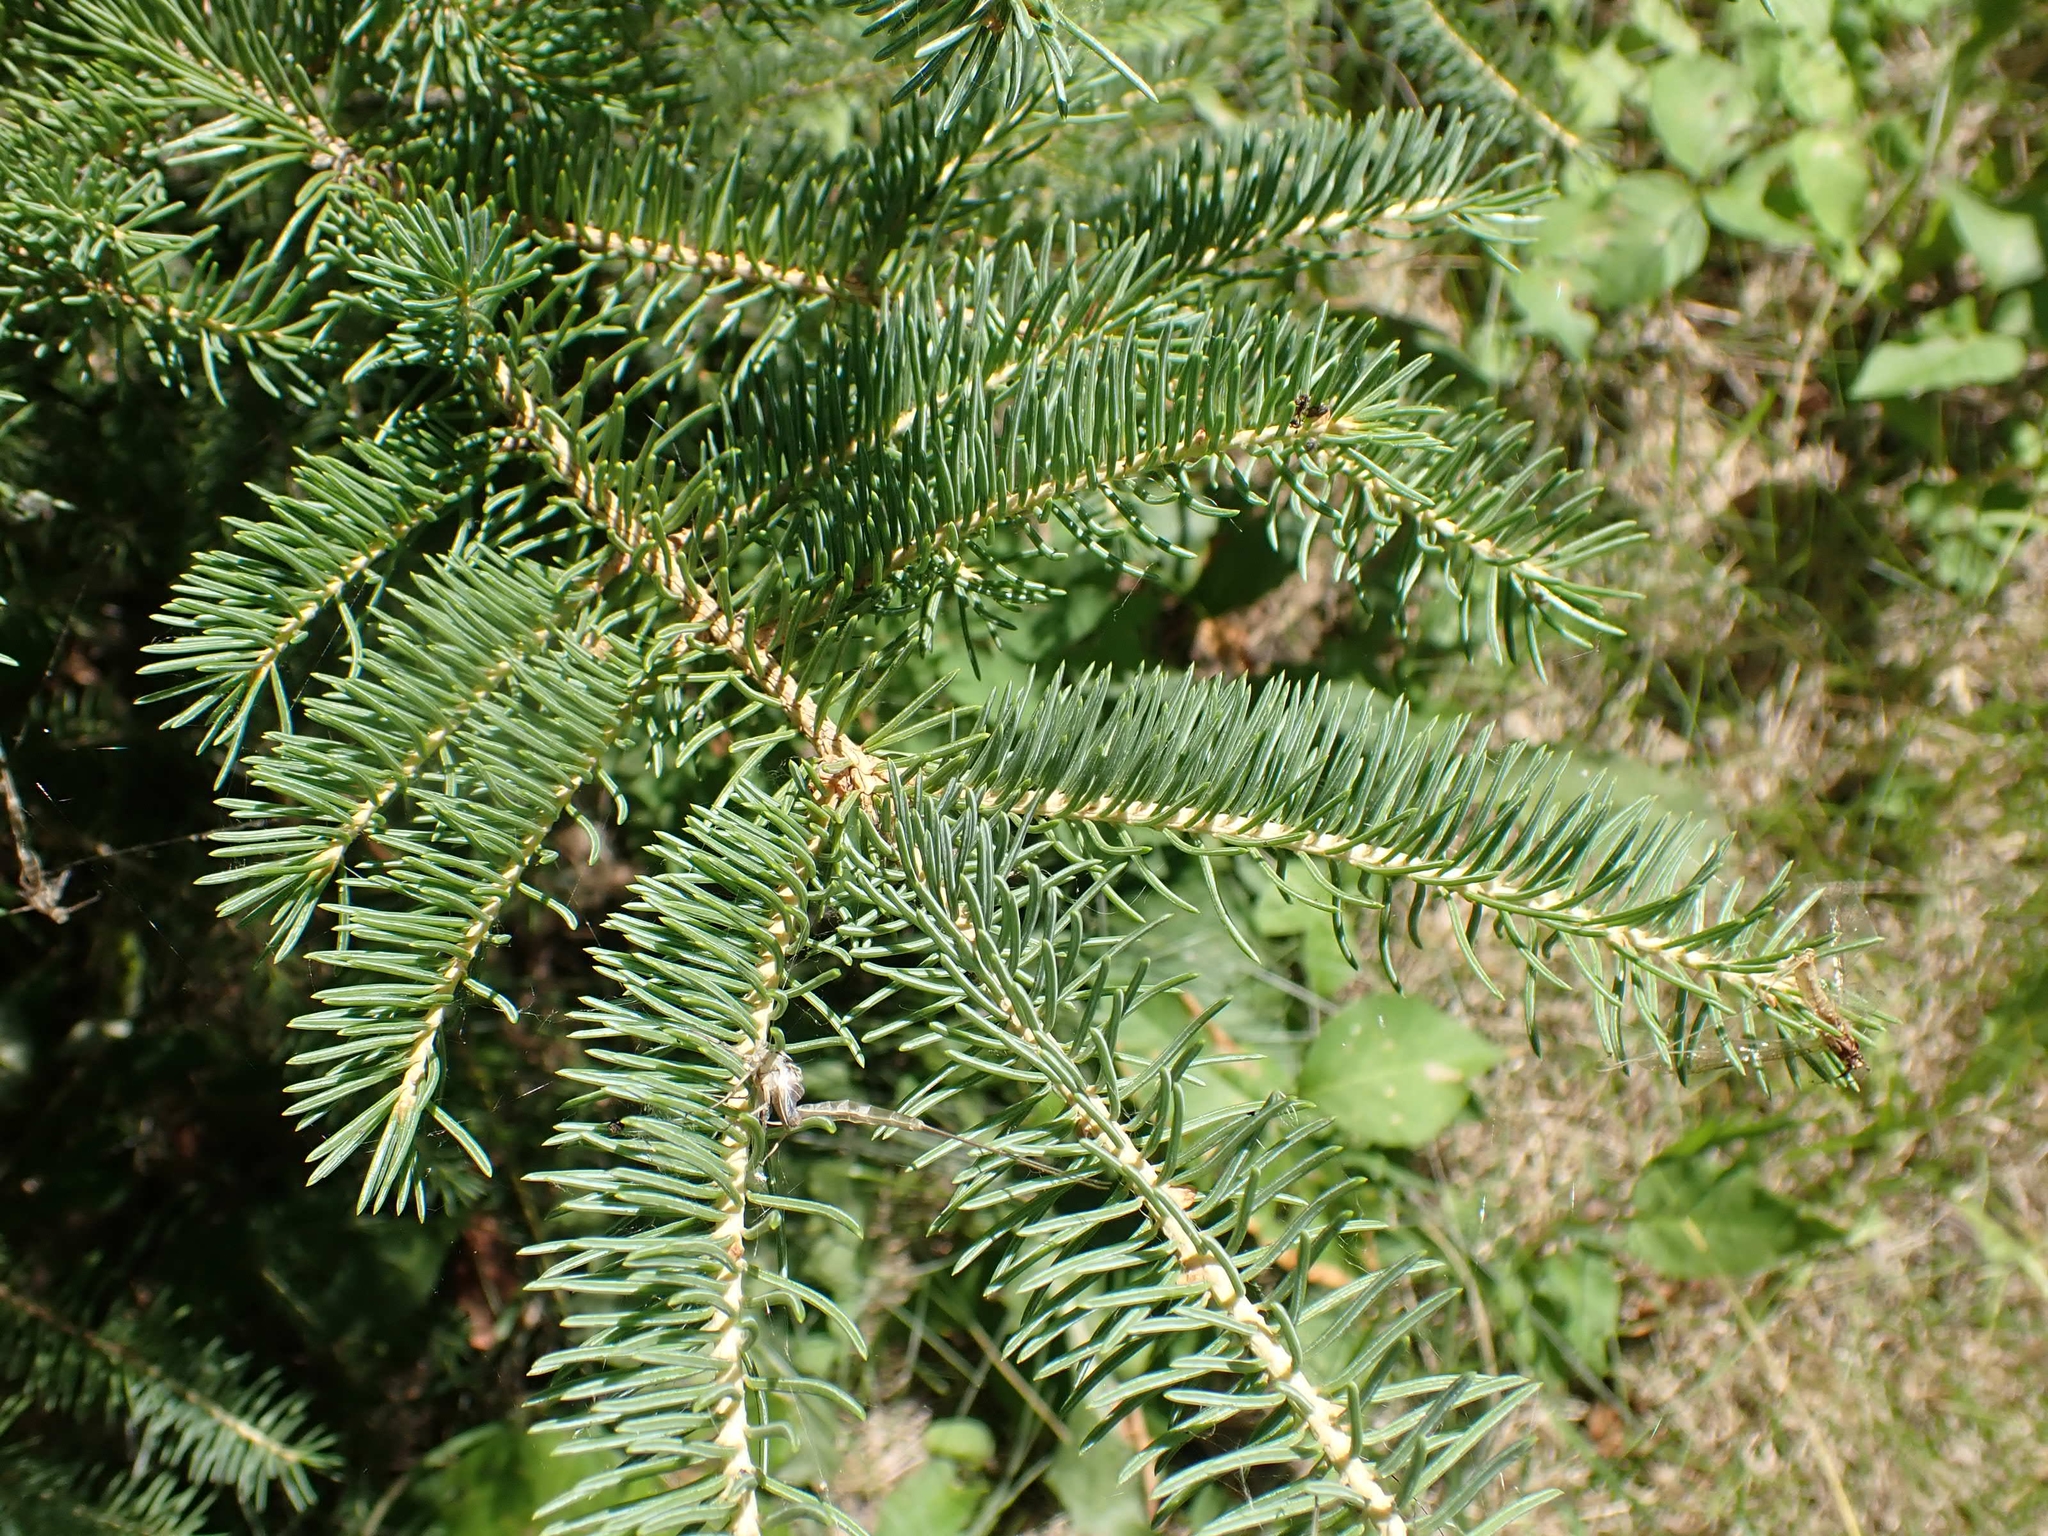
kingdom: Plantae
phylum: Tracheophyta
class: Pinopsida
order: Pinales
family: Pinaceae
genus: Picea
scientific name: Picea glauca
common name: White spruce
